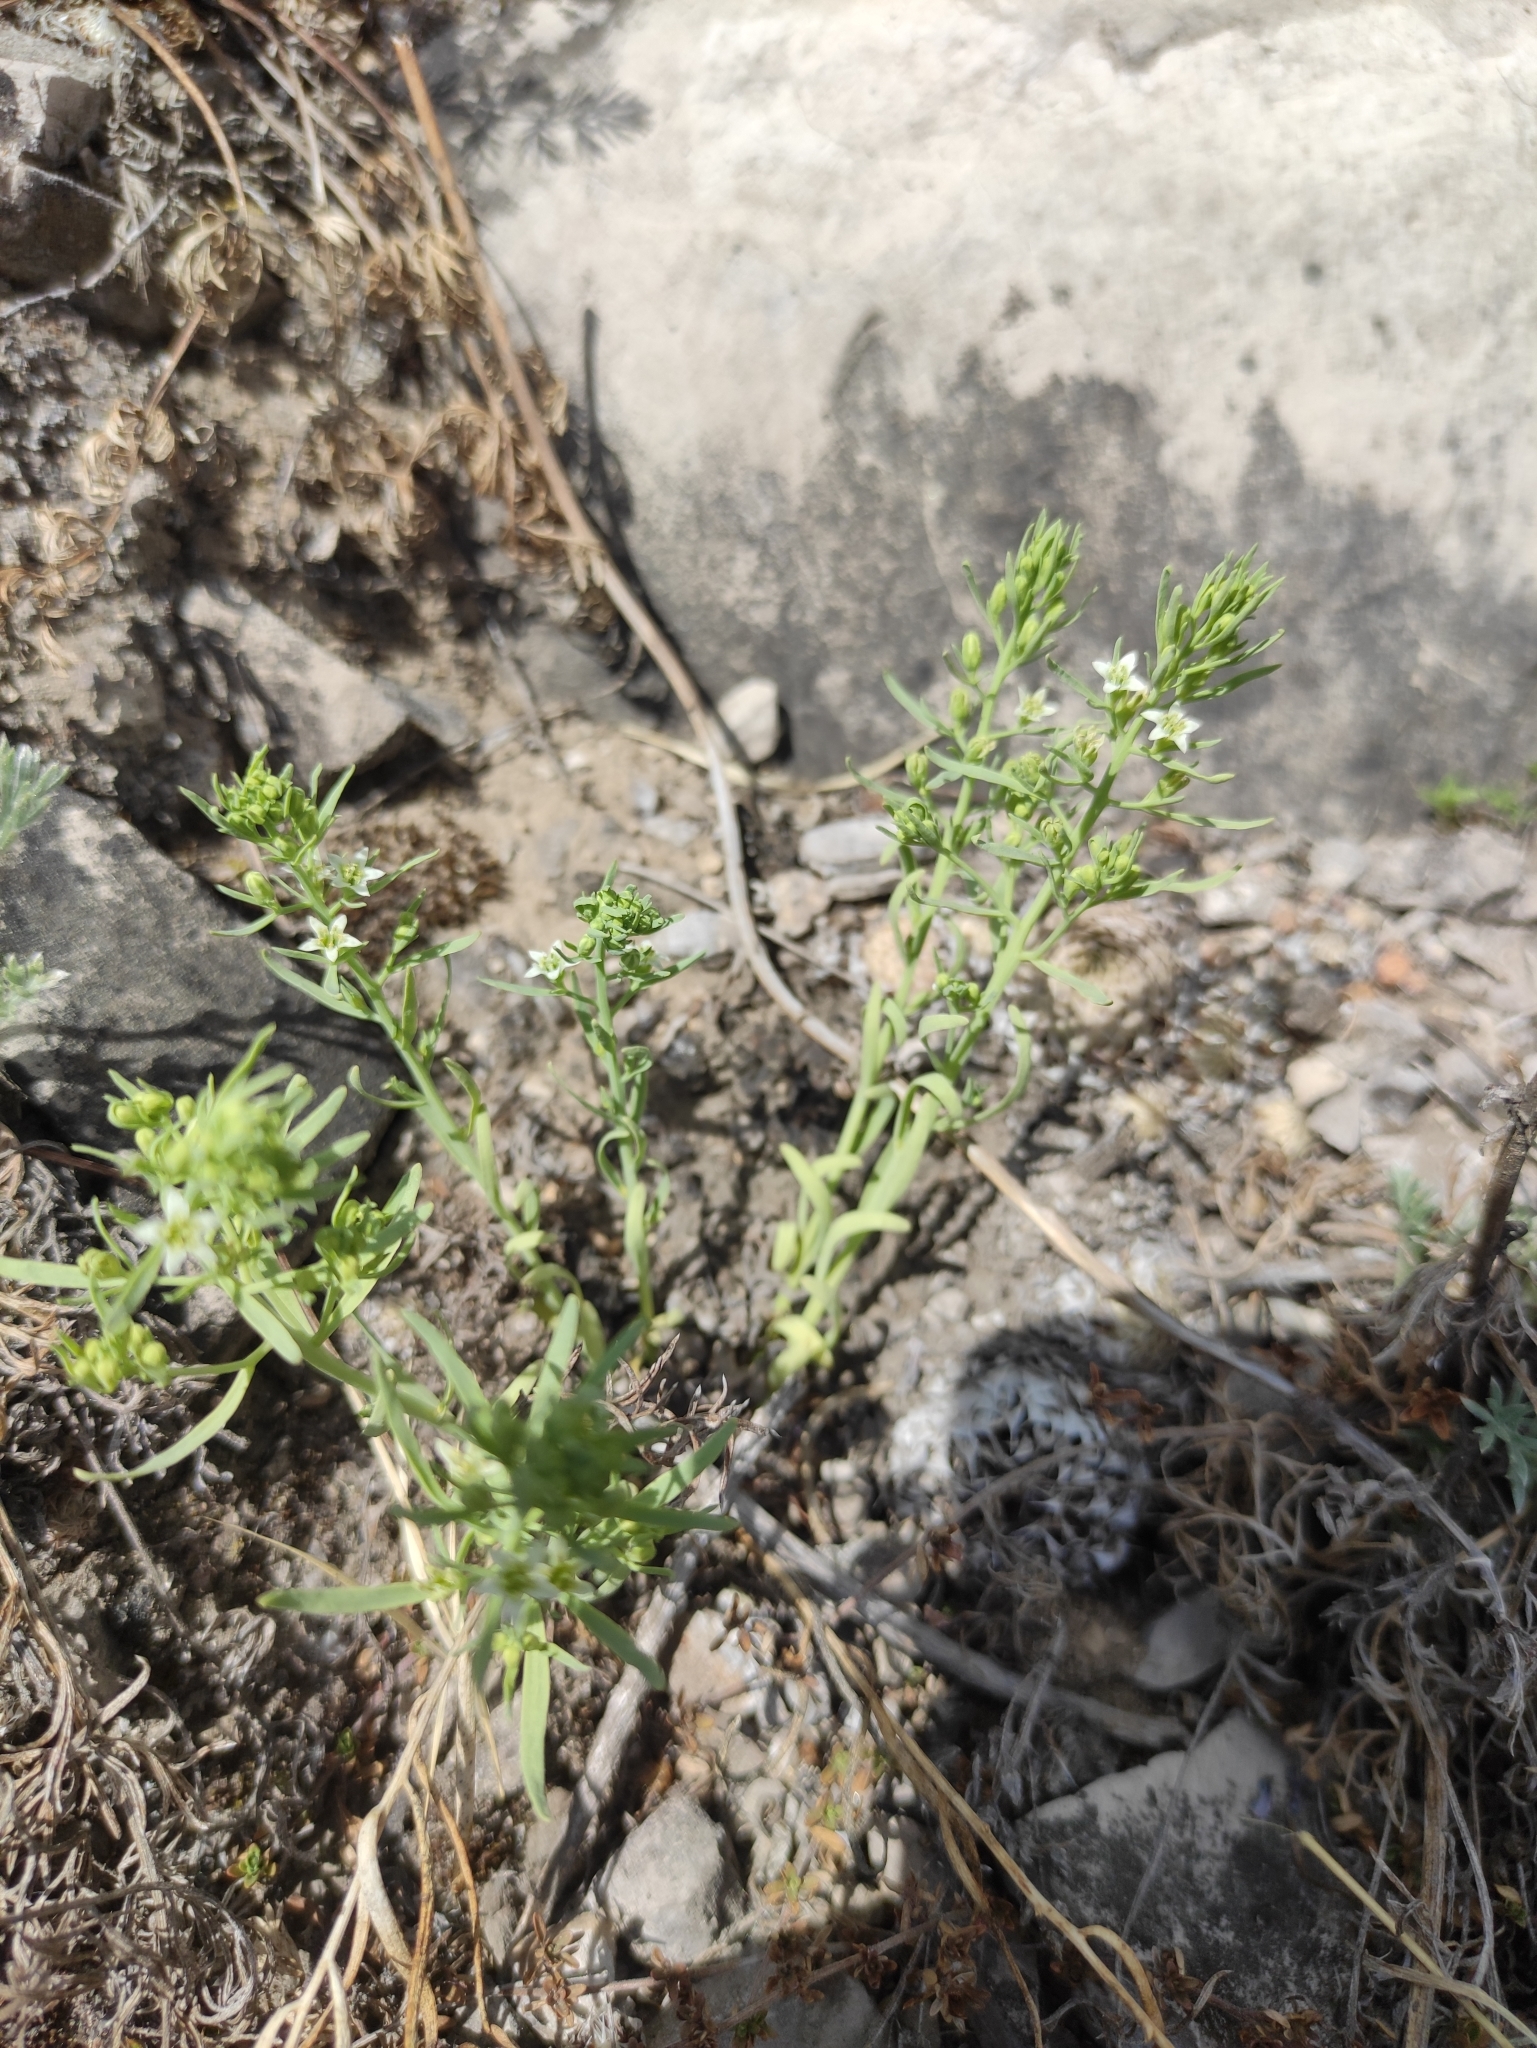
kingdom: Plantae
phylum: Tracheophyta
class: Magnoliopsida
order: Santalales
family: Thesiaceae
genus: Thesium
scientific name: Thesium repens
